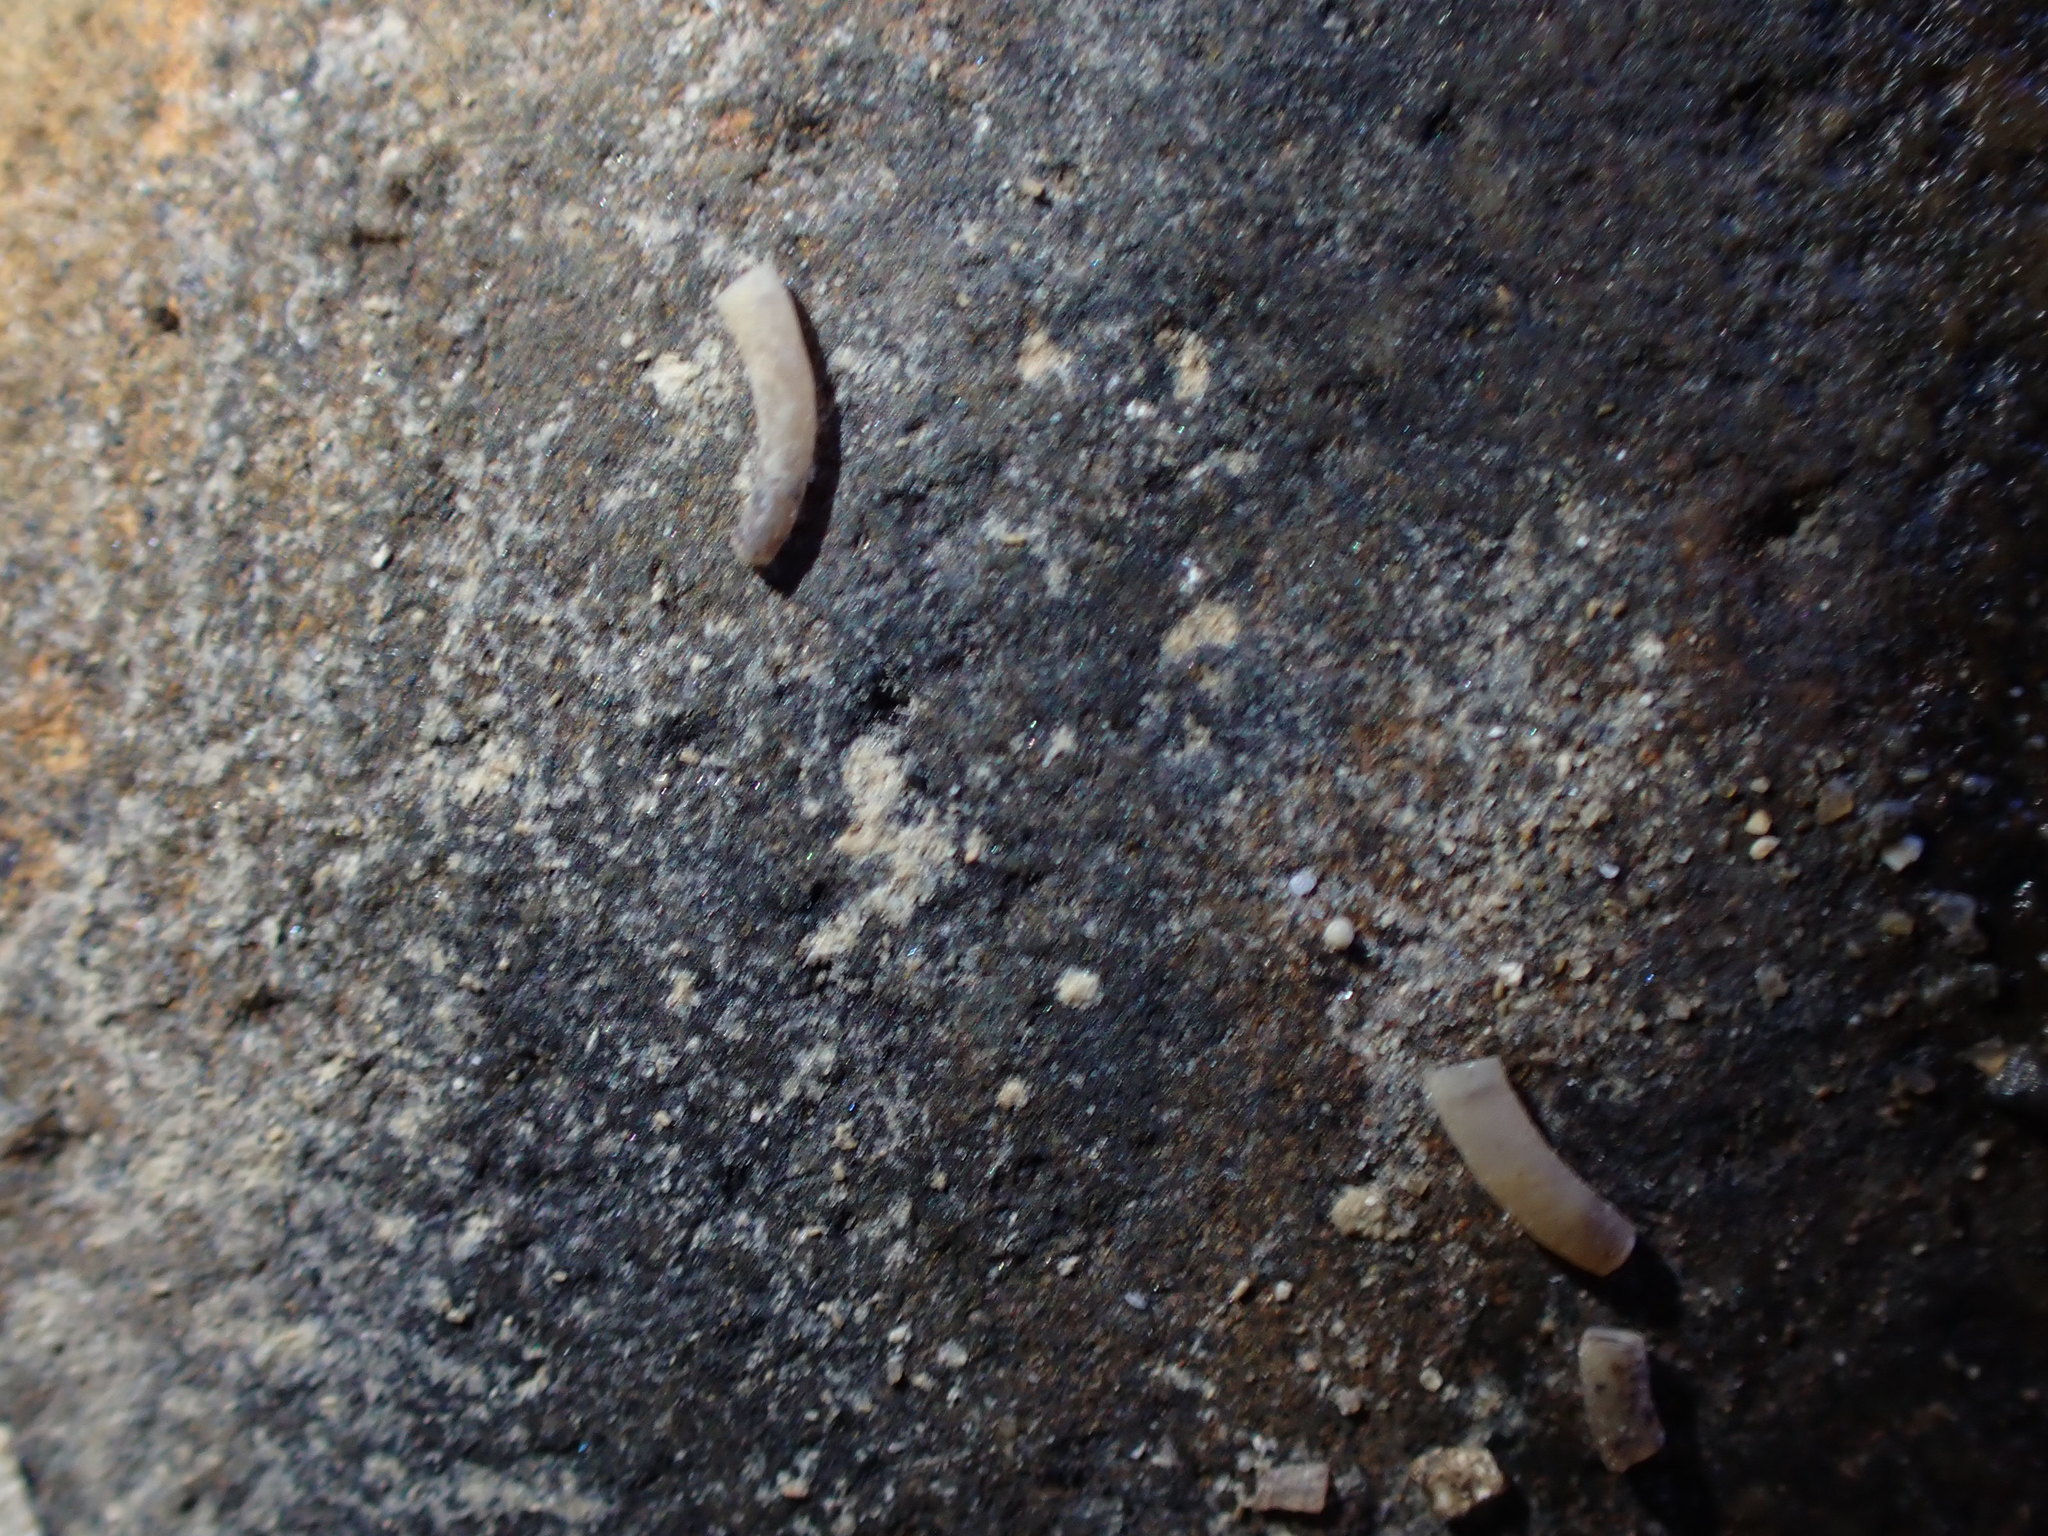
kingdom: Animalia
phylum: Mollusca
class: Gastropoda
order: Littorinimorpha
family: Caecidae
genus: Caecum
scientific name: Caecum
